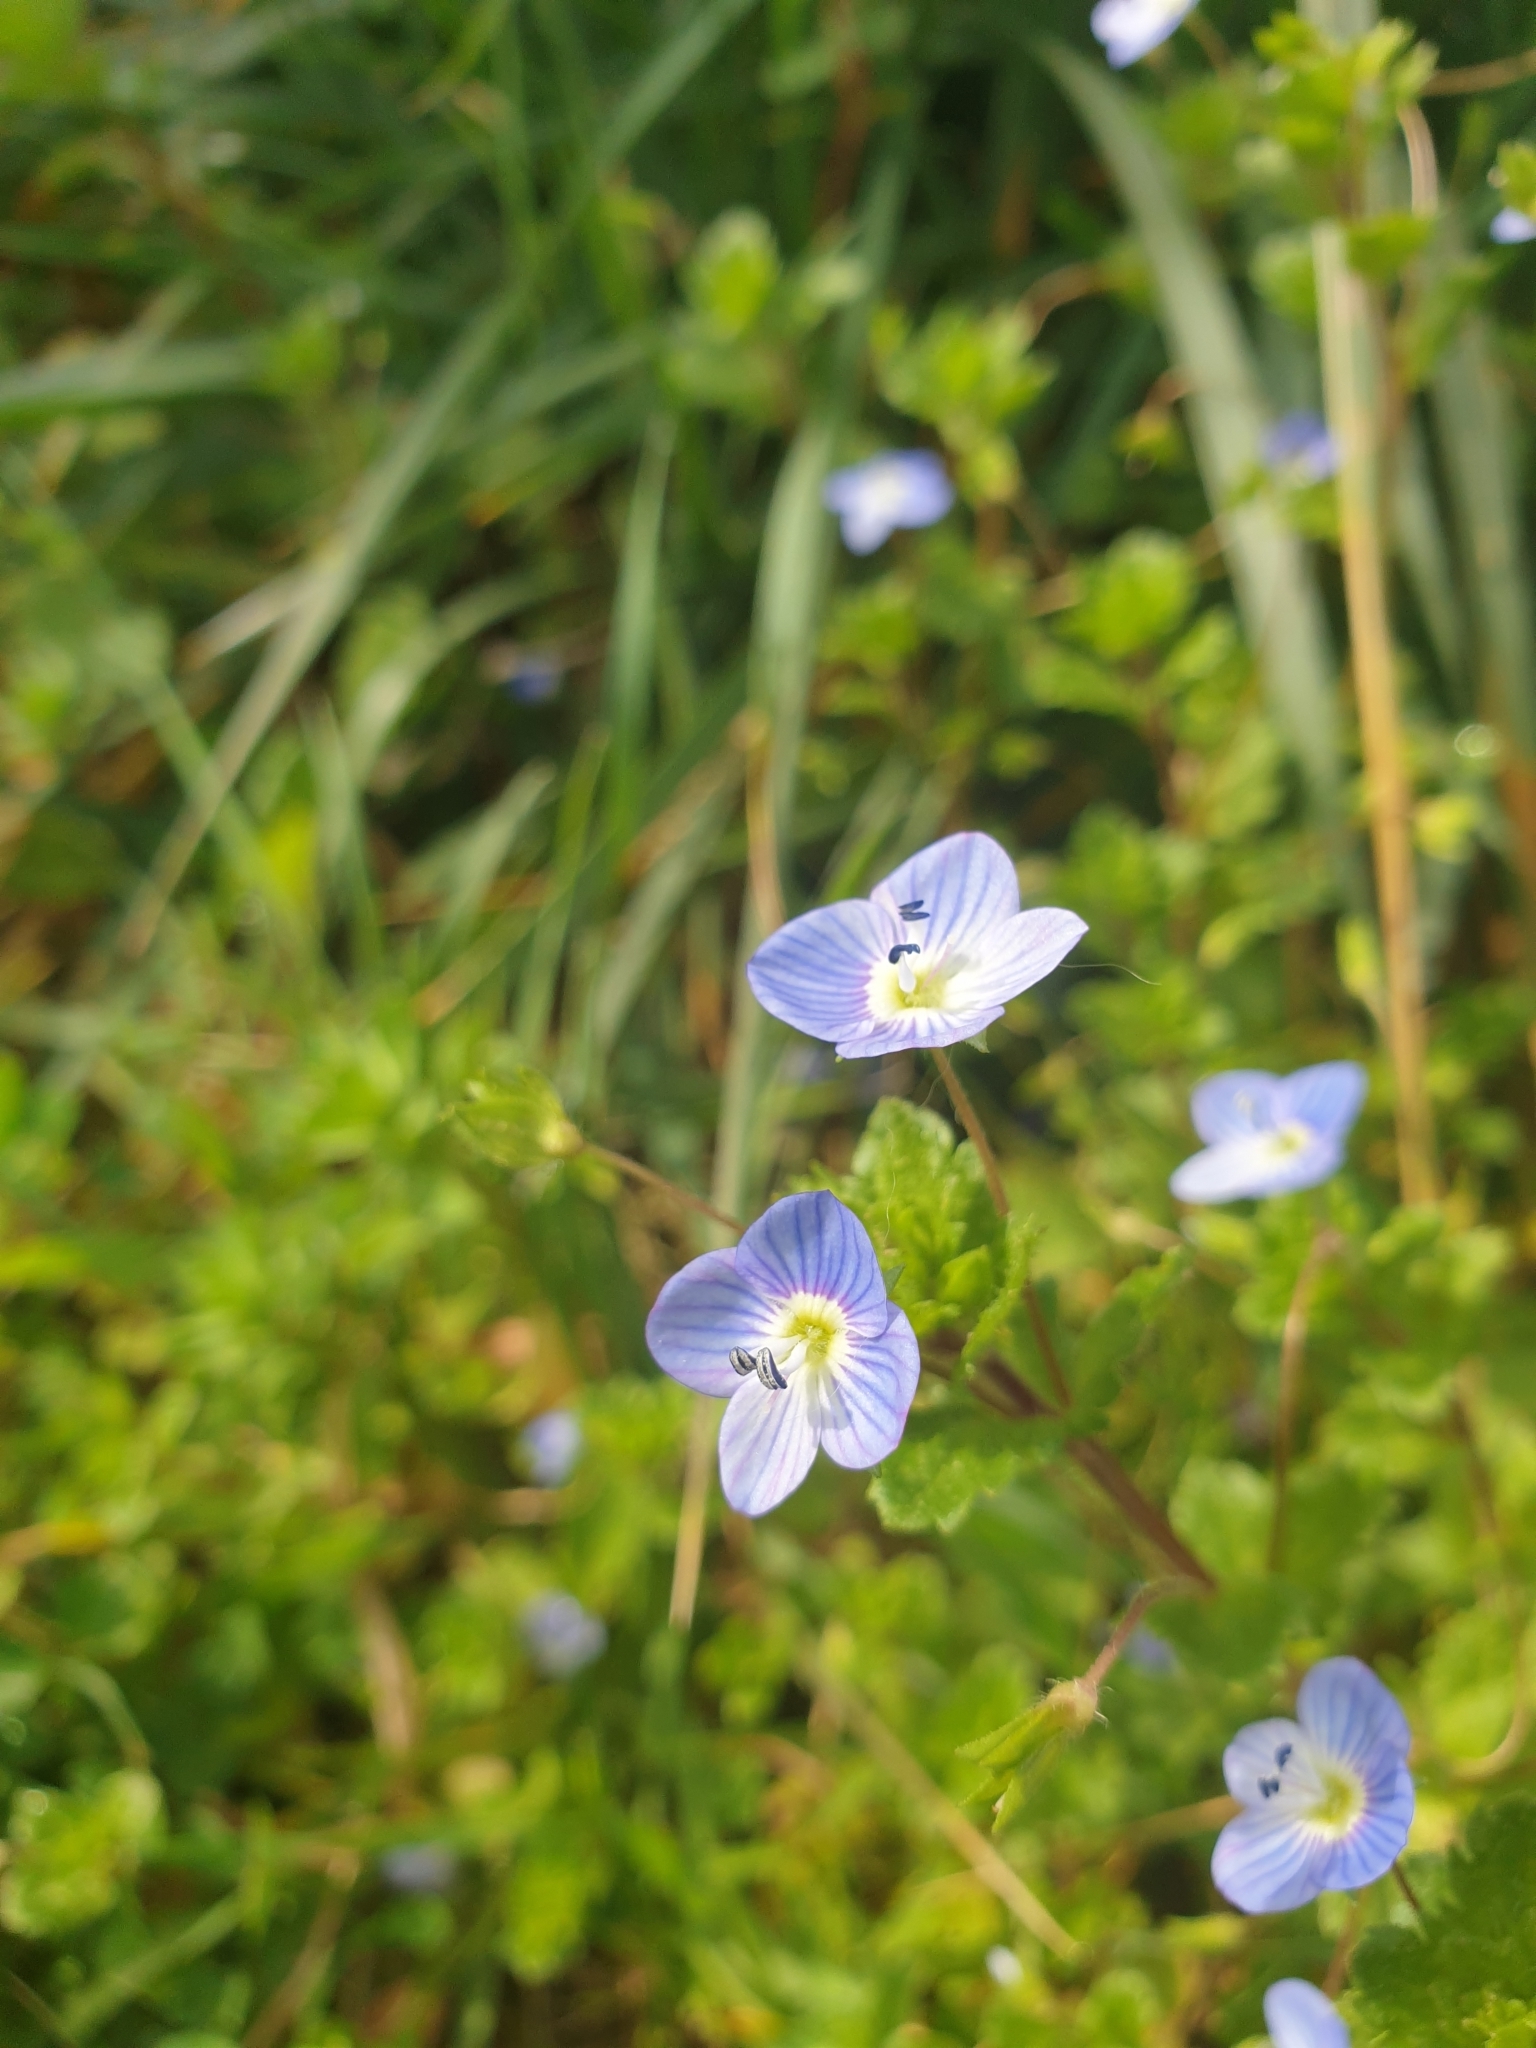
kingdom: Plantae
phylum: Tracheophyta
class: Magnoliopsida
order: Lamiales
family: Plantaginaceae
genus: Veronica
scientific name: Veronica persica
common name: Common field-speedwell
